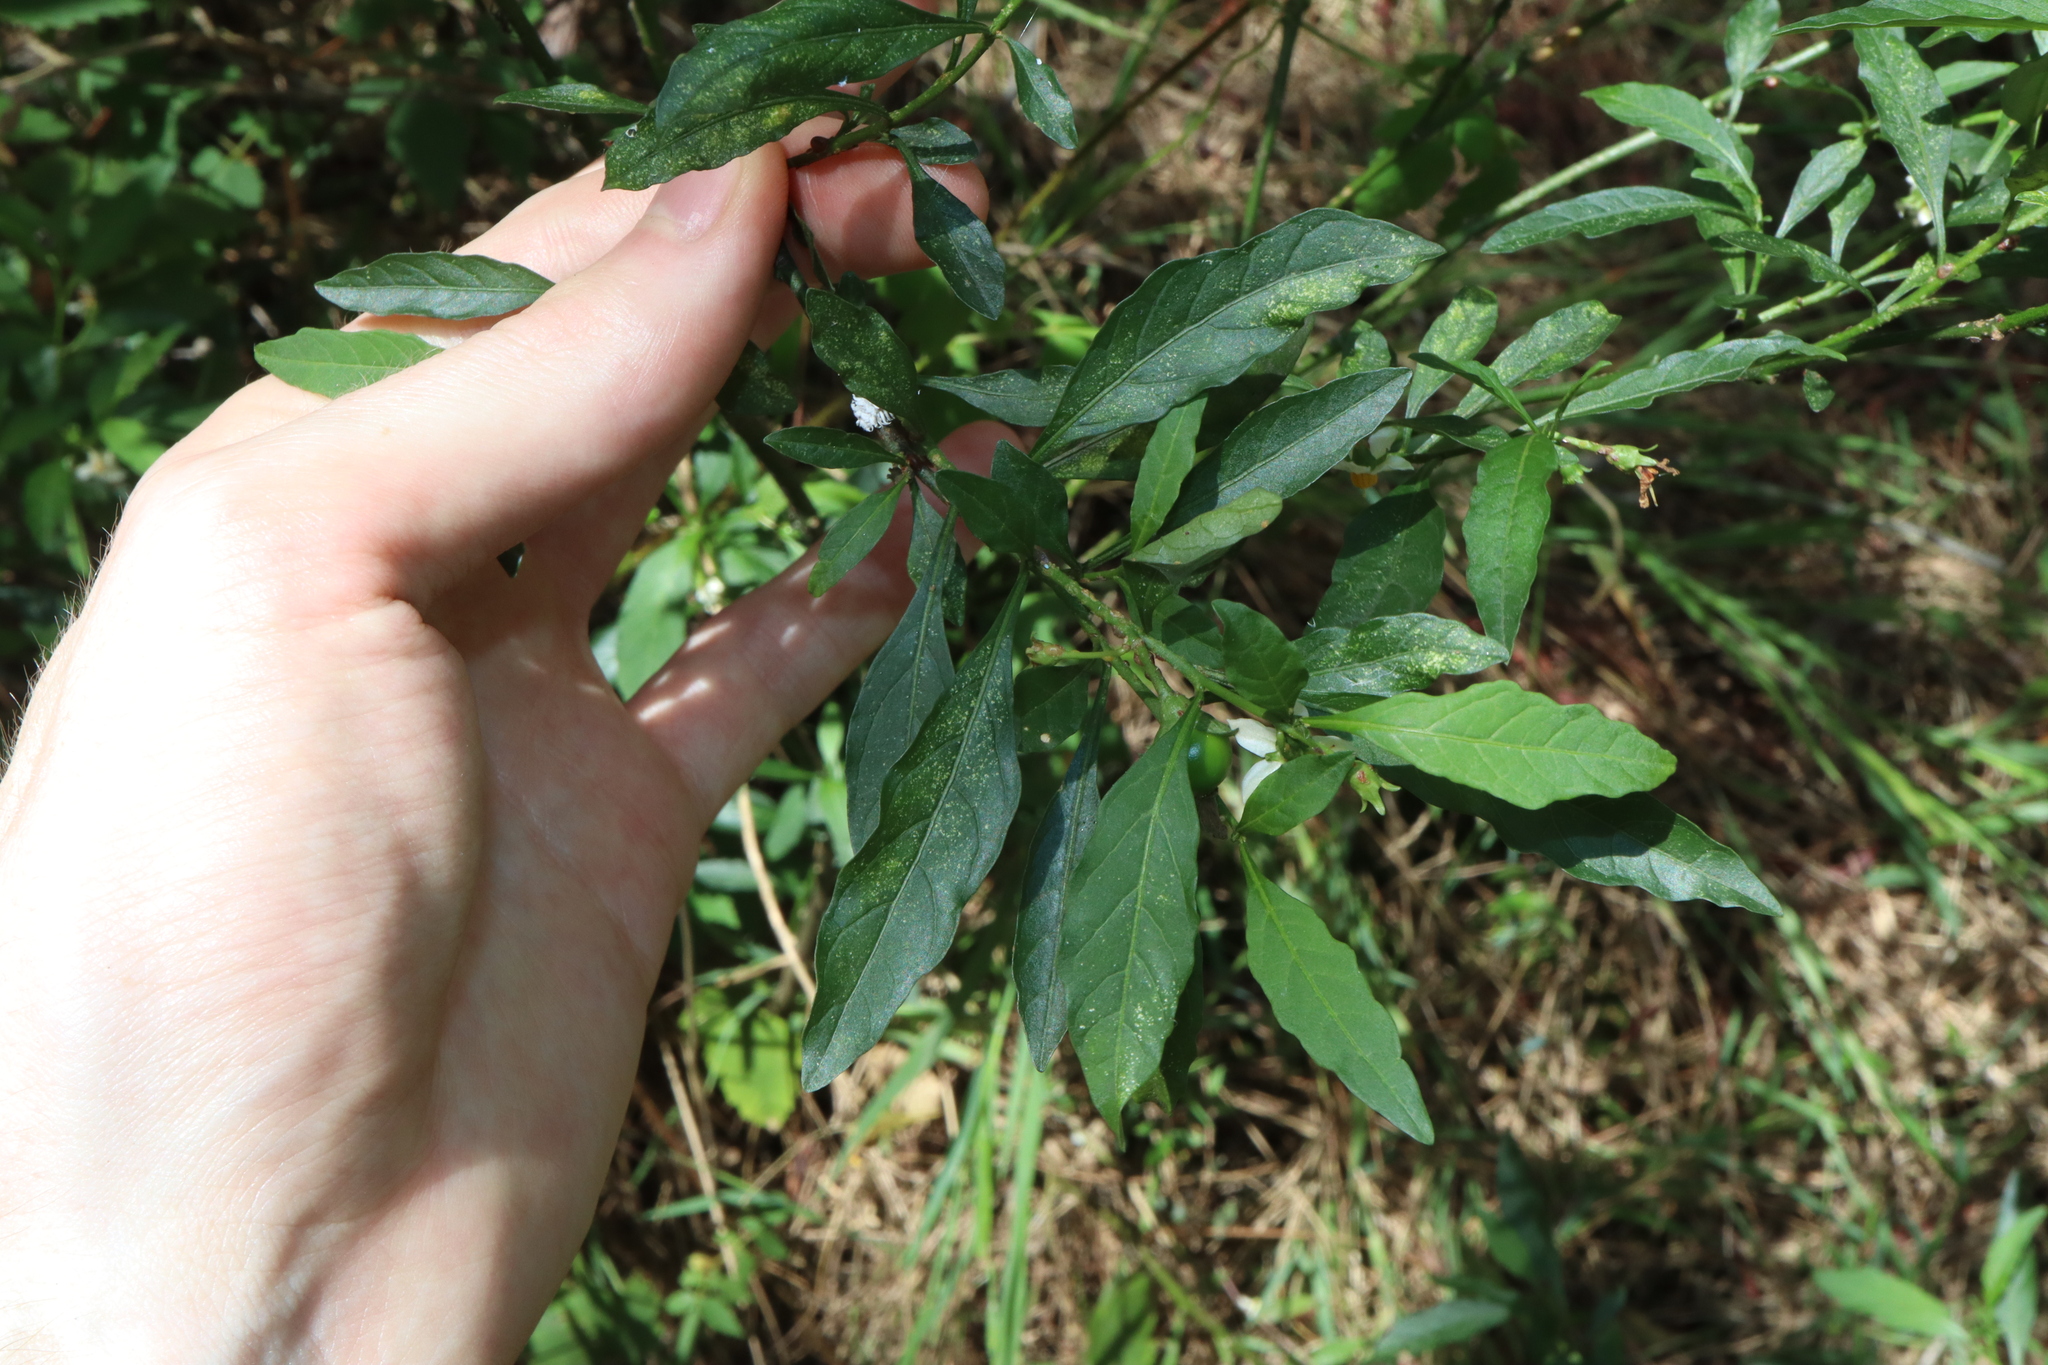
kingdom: Plantae
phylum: Tracheophyta
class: Magnoliopsida
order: Solanales
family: Solanaceae
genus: Solanum
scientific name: Solanum pseudocapsicum
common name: Jerusalem cherry
